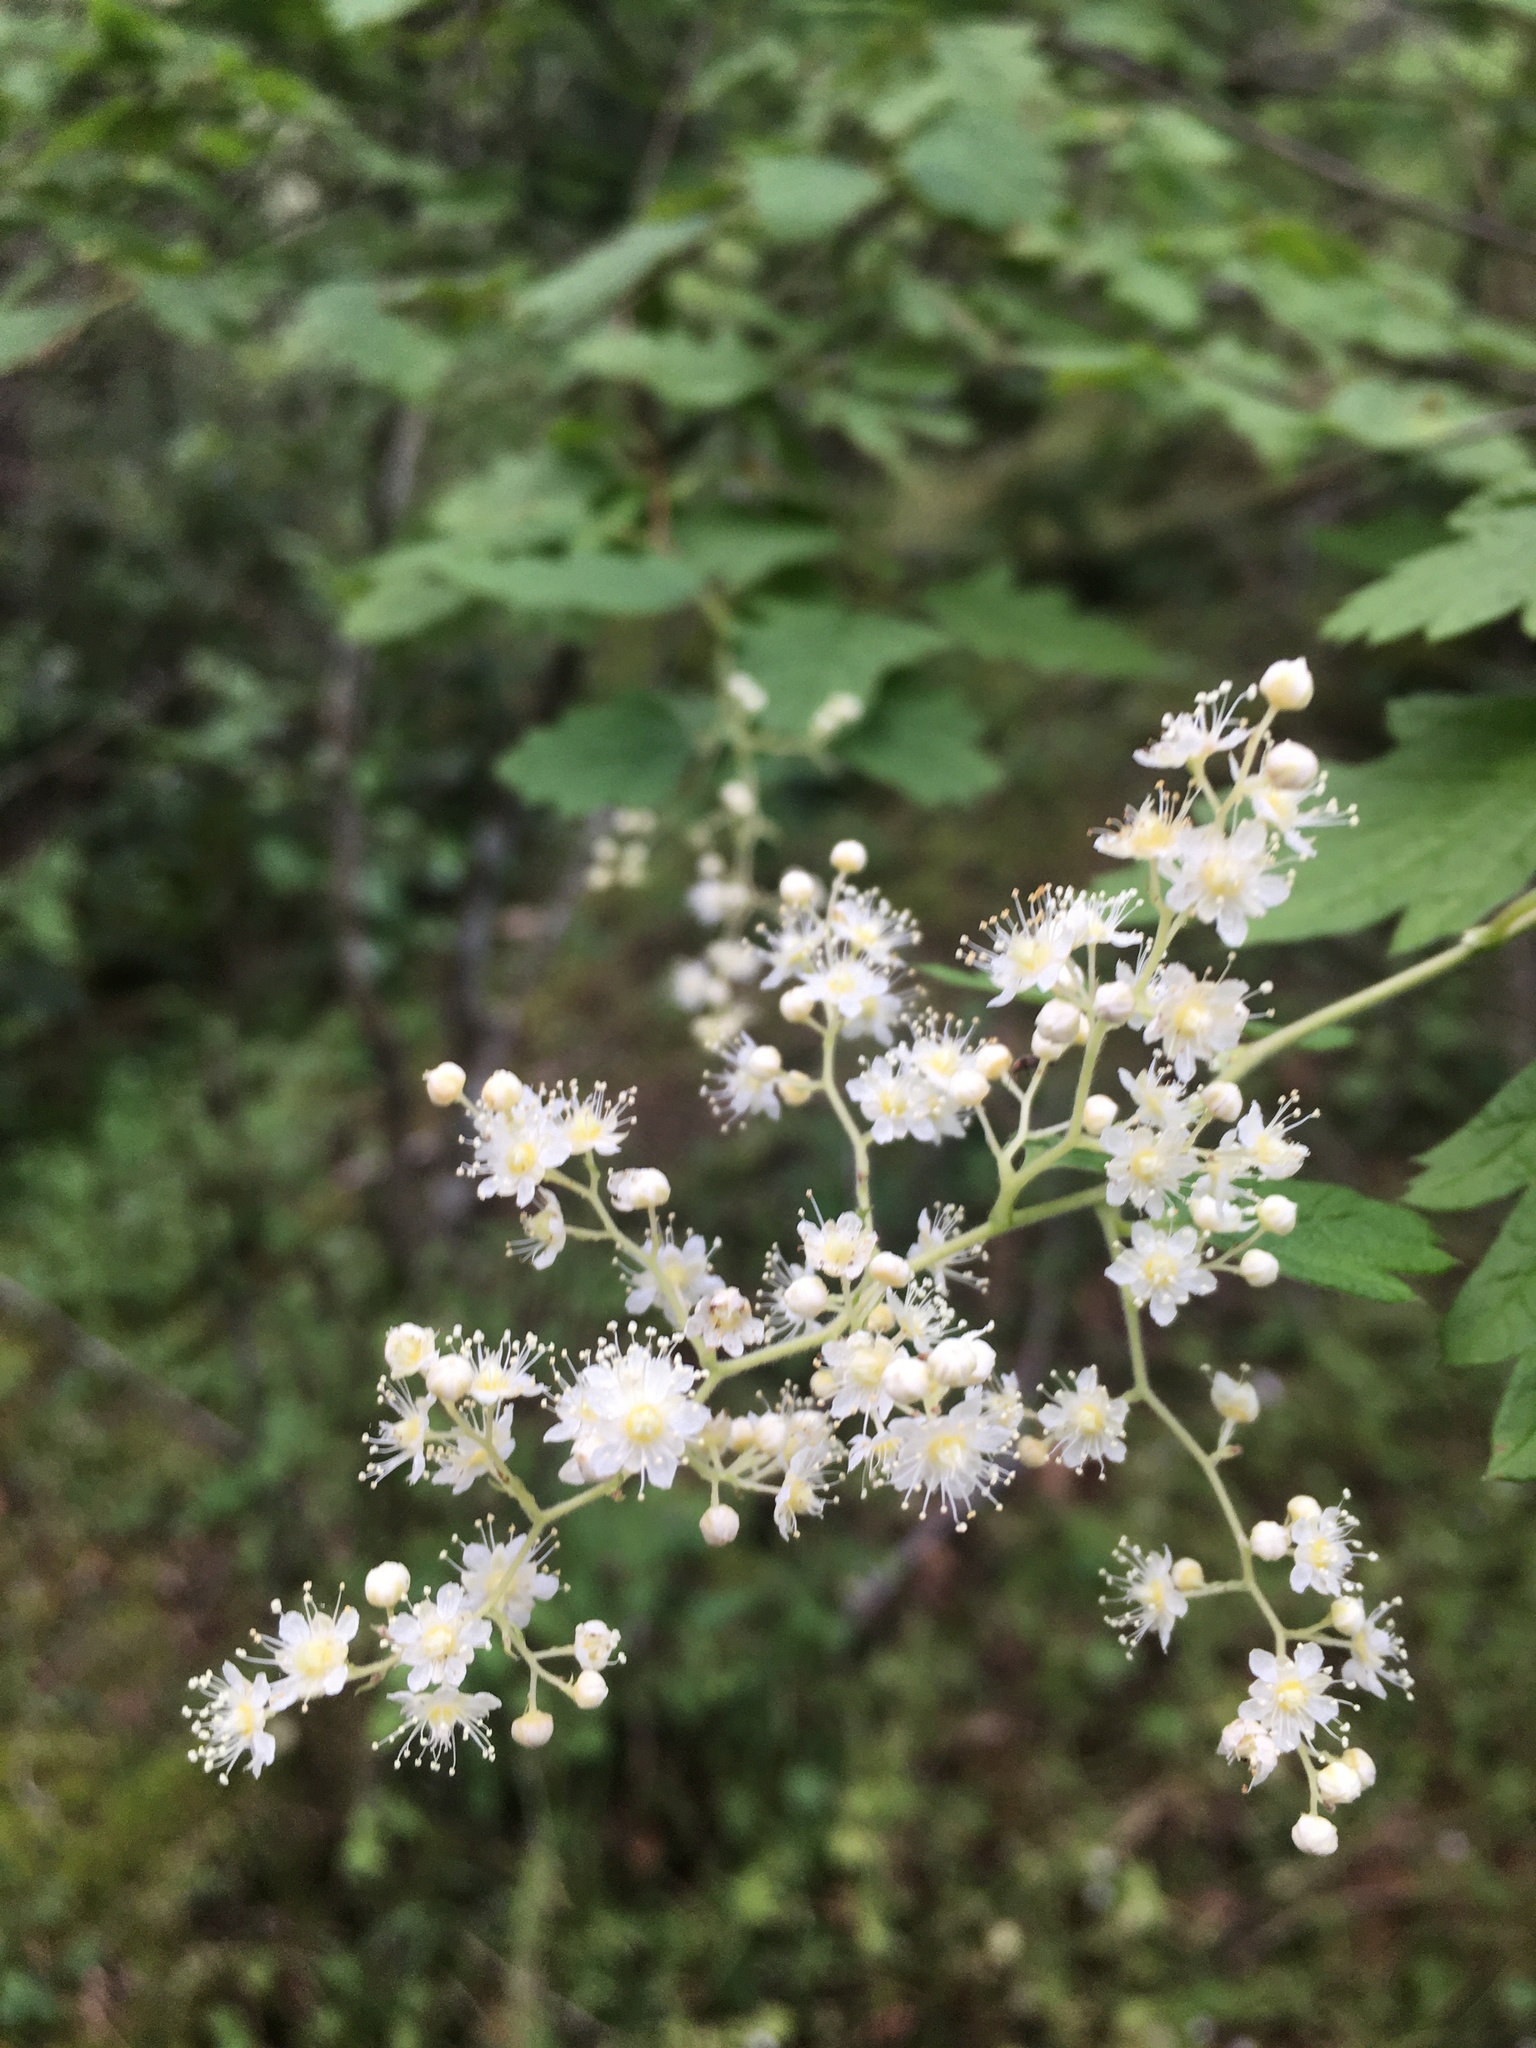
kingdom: Plantae
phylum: Tracheophyta
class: Magnoliopsida
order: Rosales
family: Rosaceae
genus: Holodiscus
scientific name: Holodiscus discolor
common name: Oceanspray
